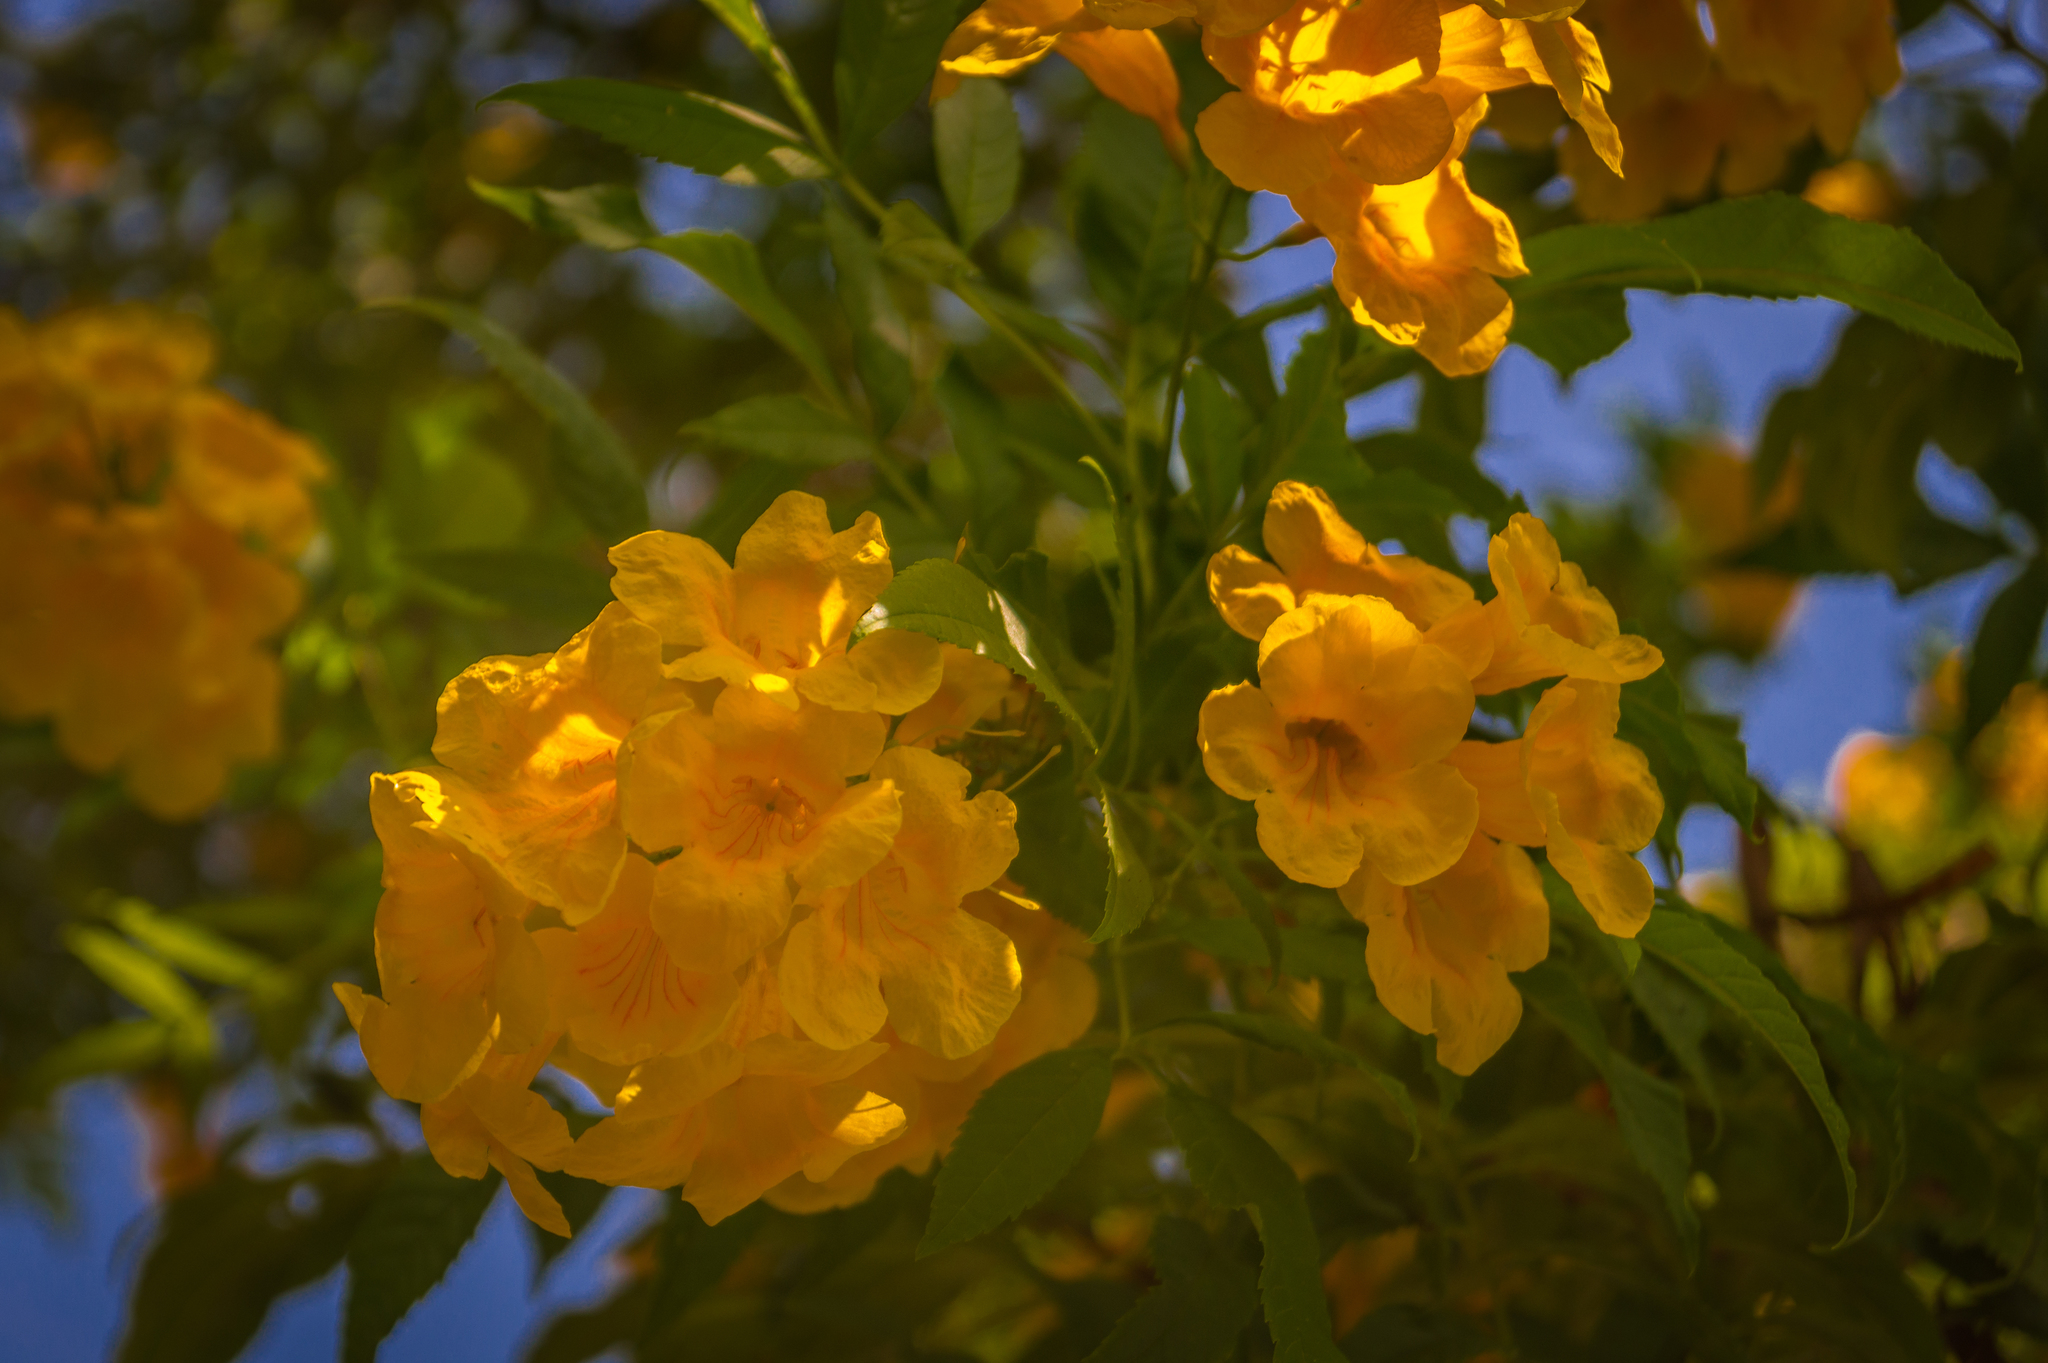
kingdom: Plantae
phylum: Tracheophyta
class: Magnoliopsida
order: Lamiales
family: Bignoniaceae
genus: Tecoma
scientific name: Tecoma stans
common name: Yellow trumpetbush
